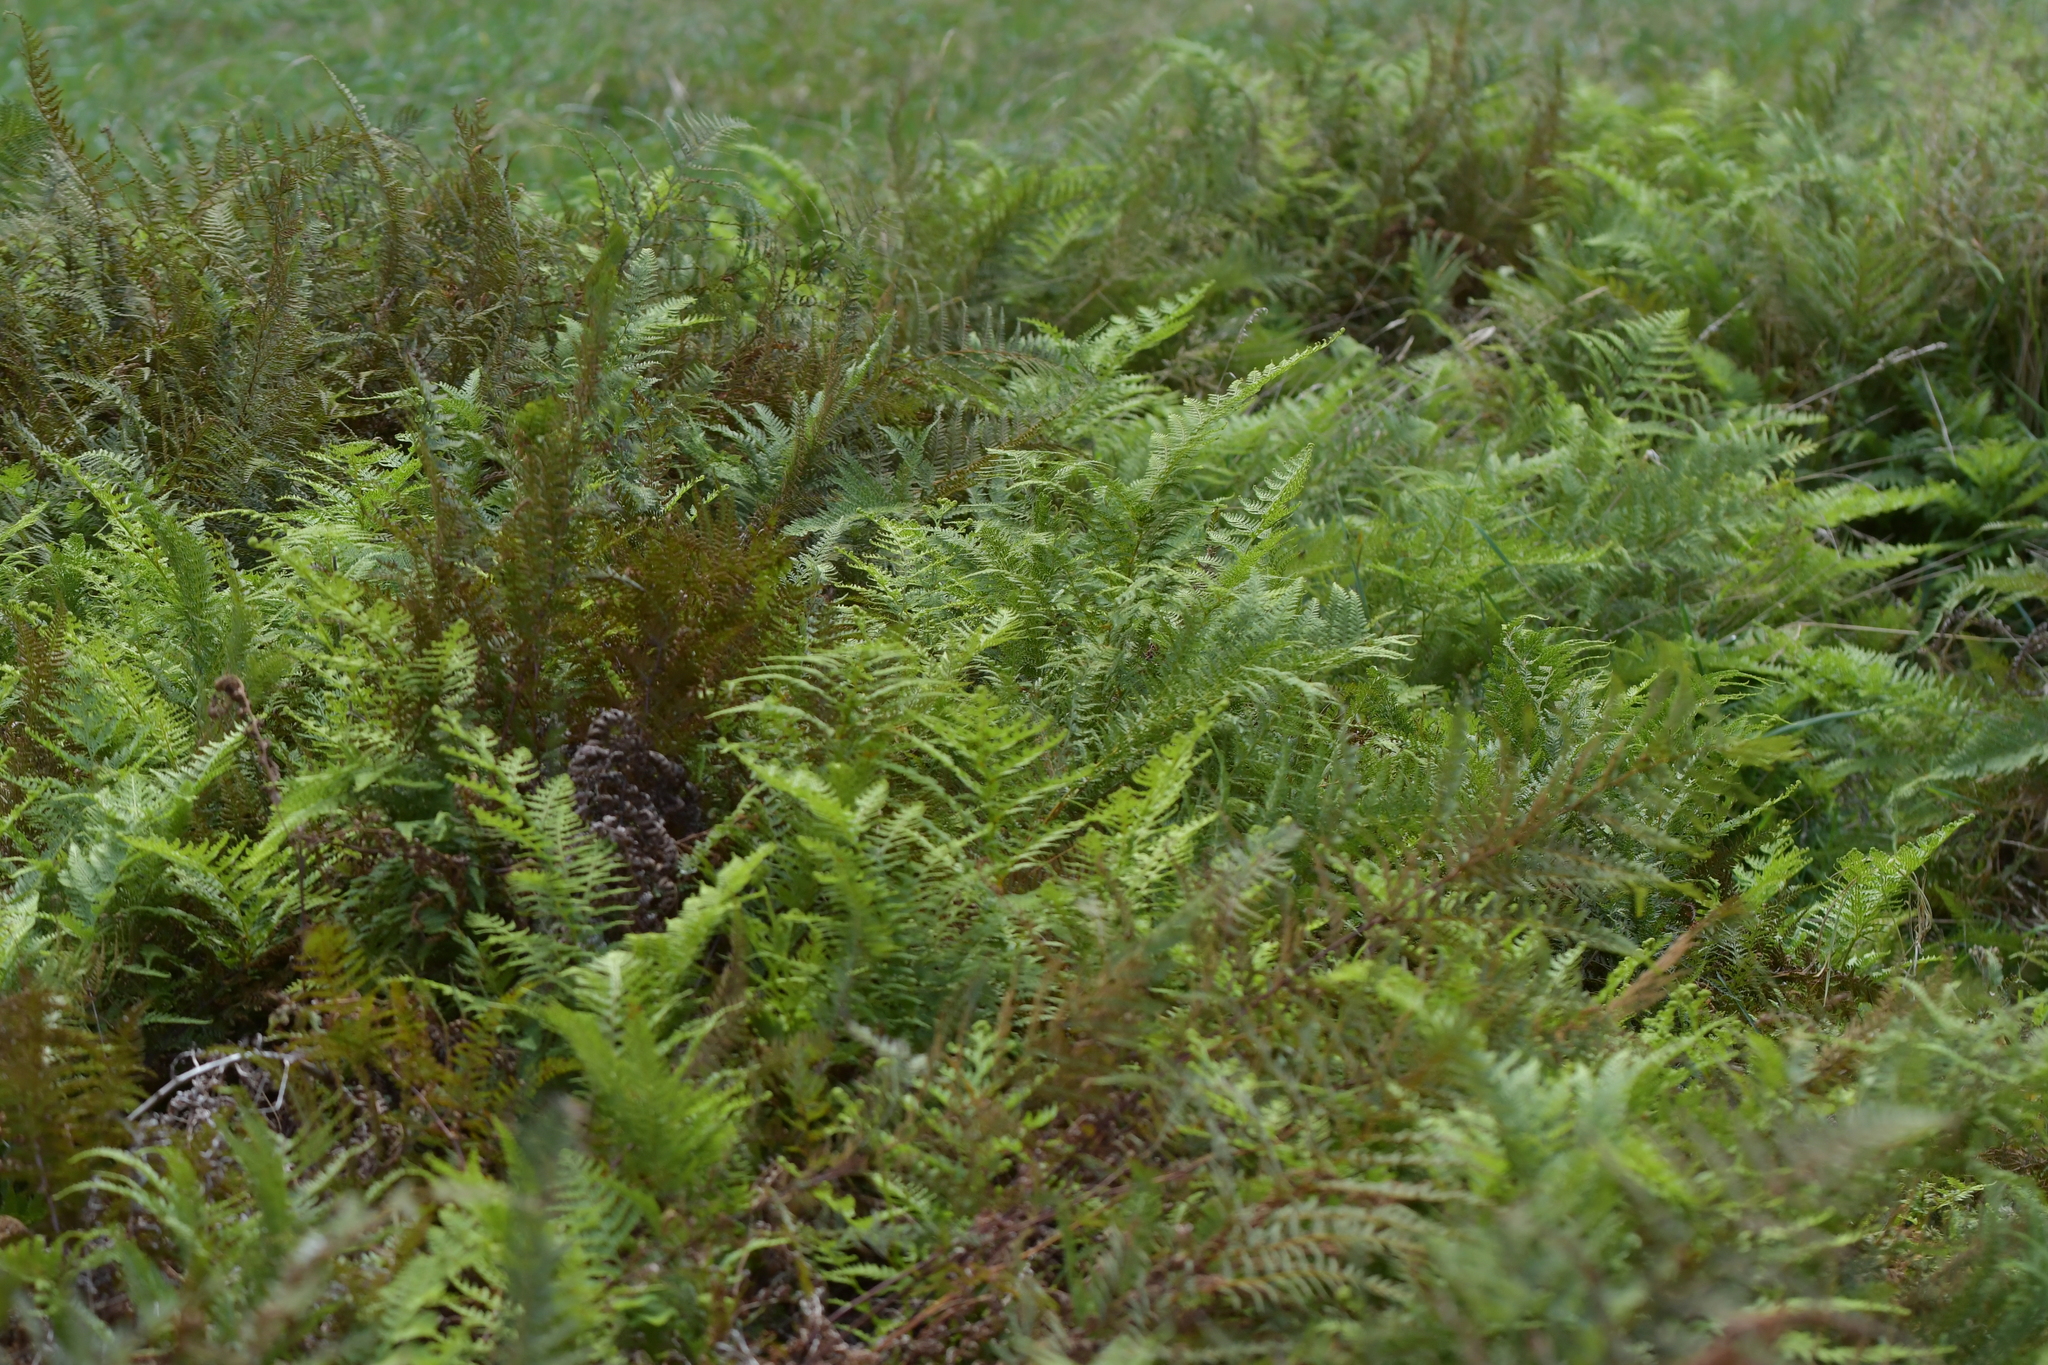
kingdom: Plantae
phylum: Tracheophyta
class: Polypodiopsida
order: Polypodiales
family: Dennstaedtiaceae
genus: Paesia
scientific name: Paesia scaberula
